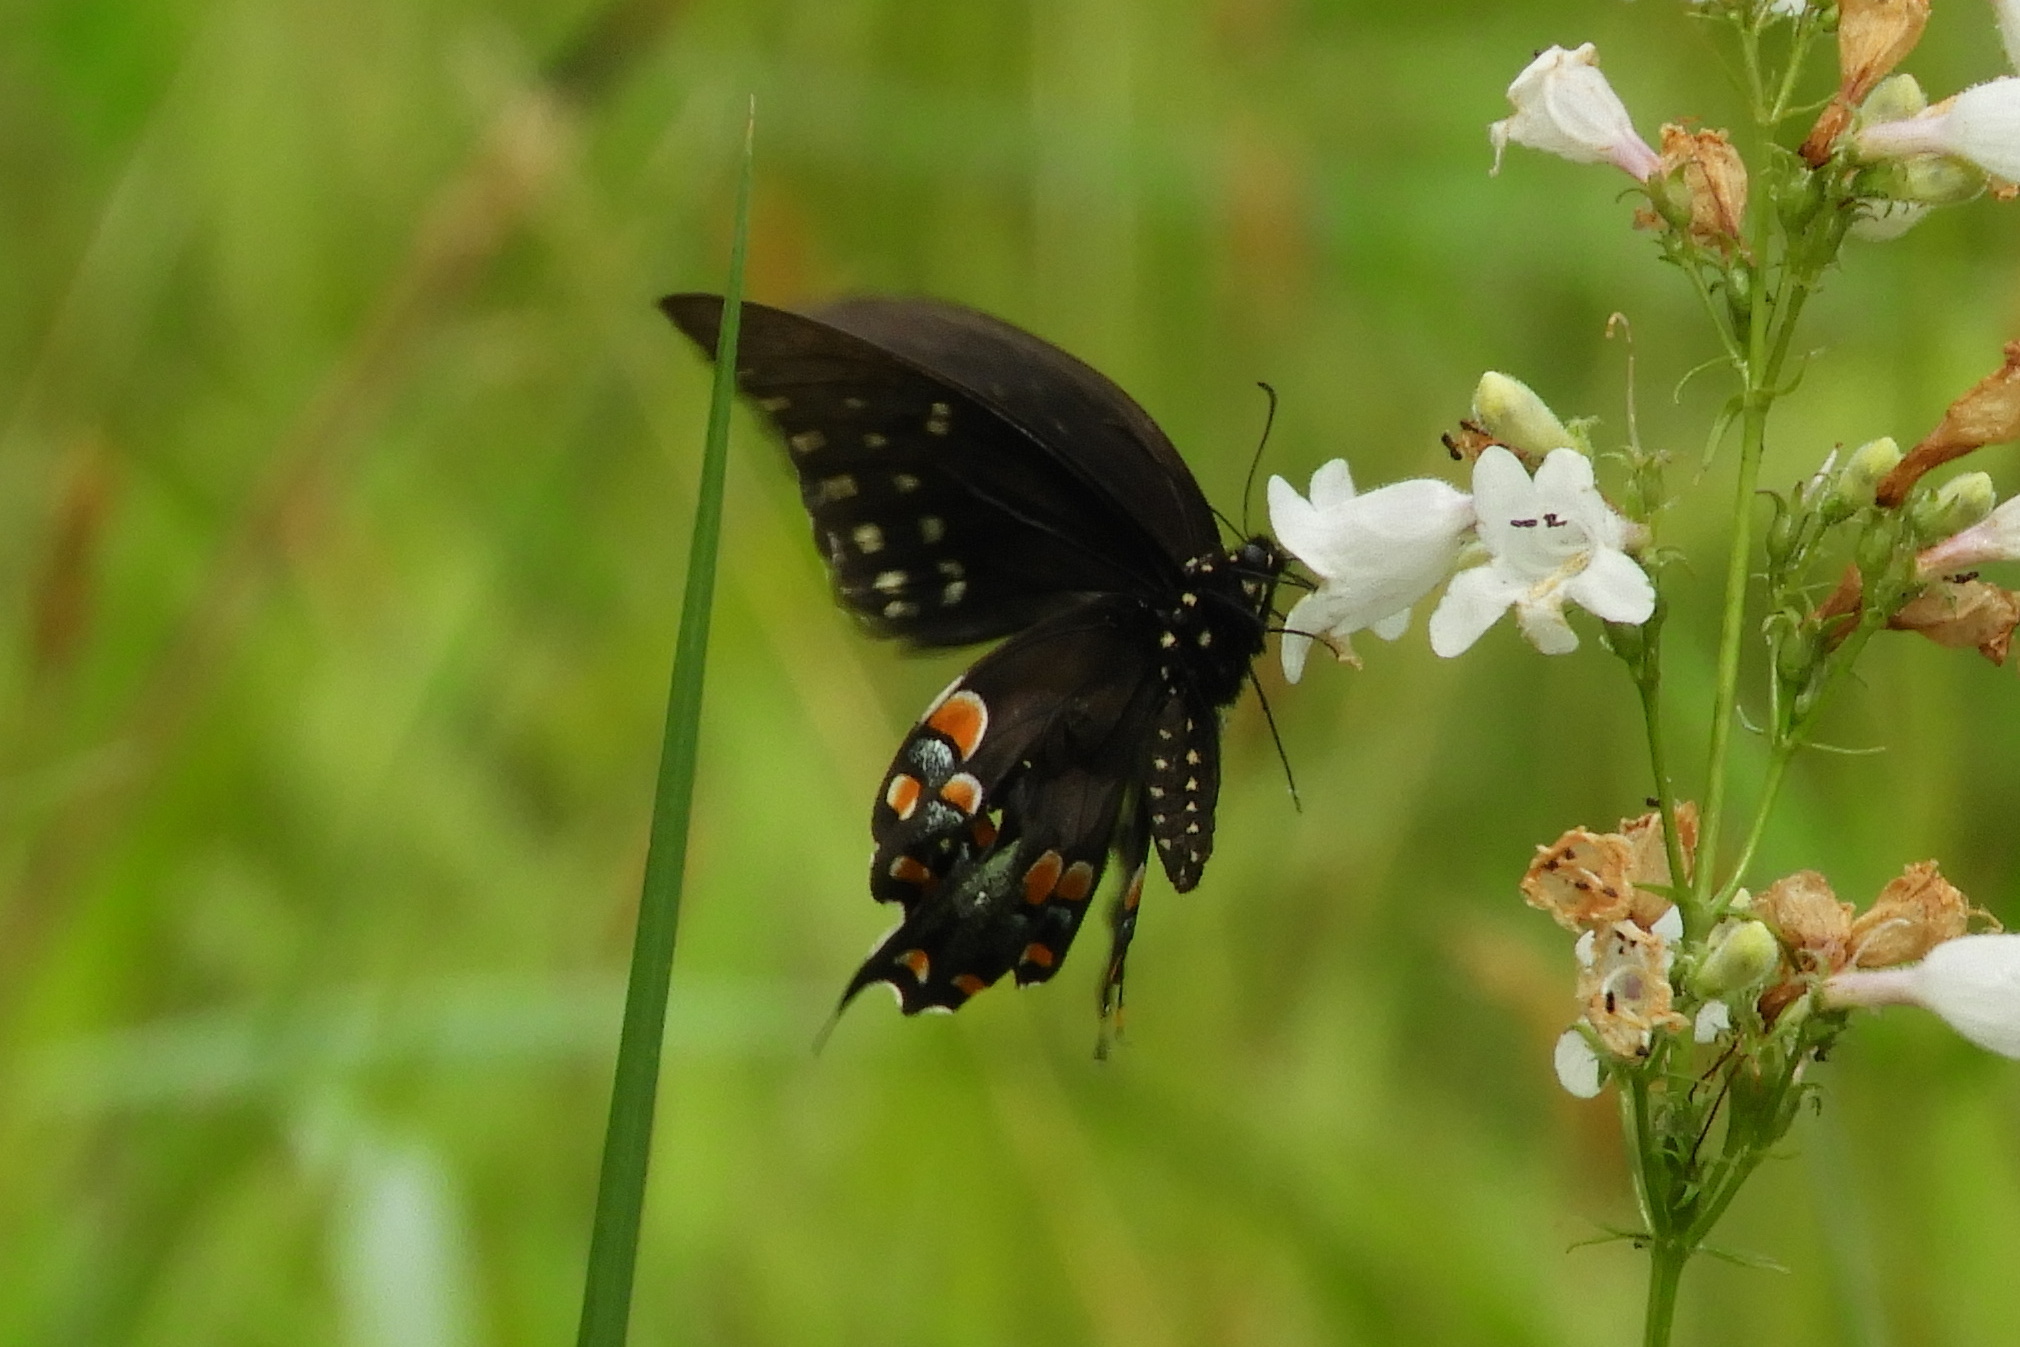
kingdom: Animalia
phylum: Arthropoda
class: Insecta
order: Lepidoptera
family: Papilionidae
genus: Papilio
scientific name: Papilio troilus
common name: Spicebush swallowtail
